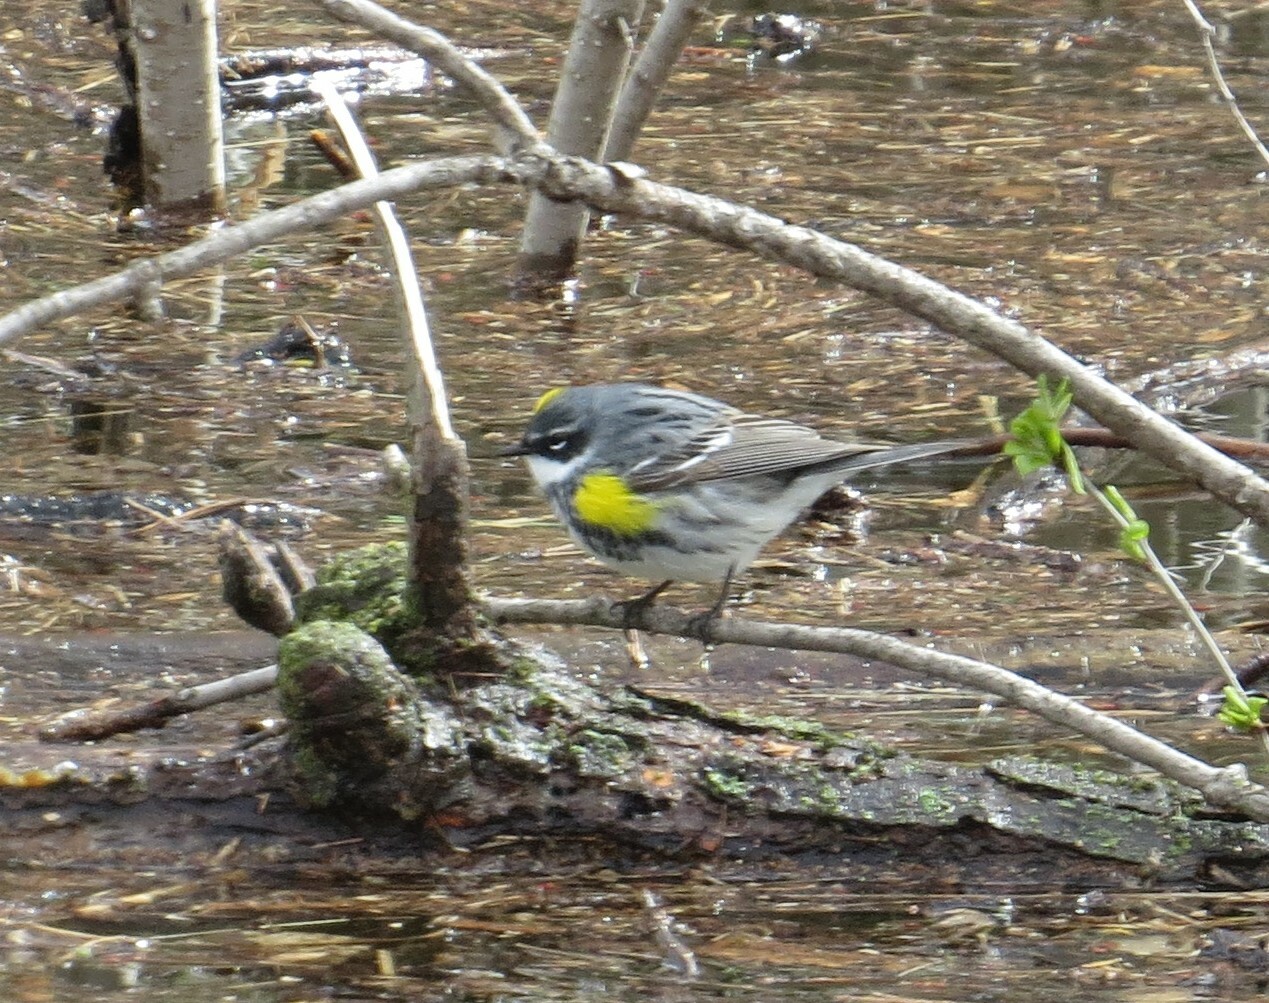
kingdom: Animalia
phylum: Chordata
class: Aves
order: Passeriformes
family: Parulidae
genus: Setophaga
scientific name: Setophaga coronata
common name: Myrtle warbler
